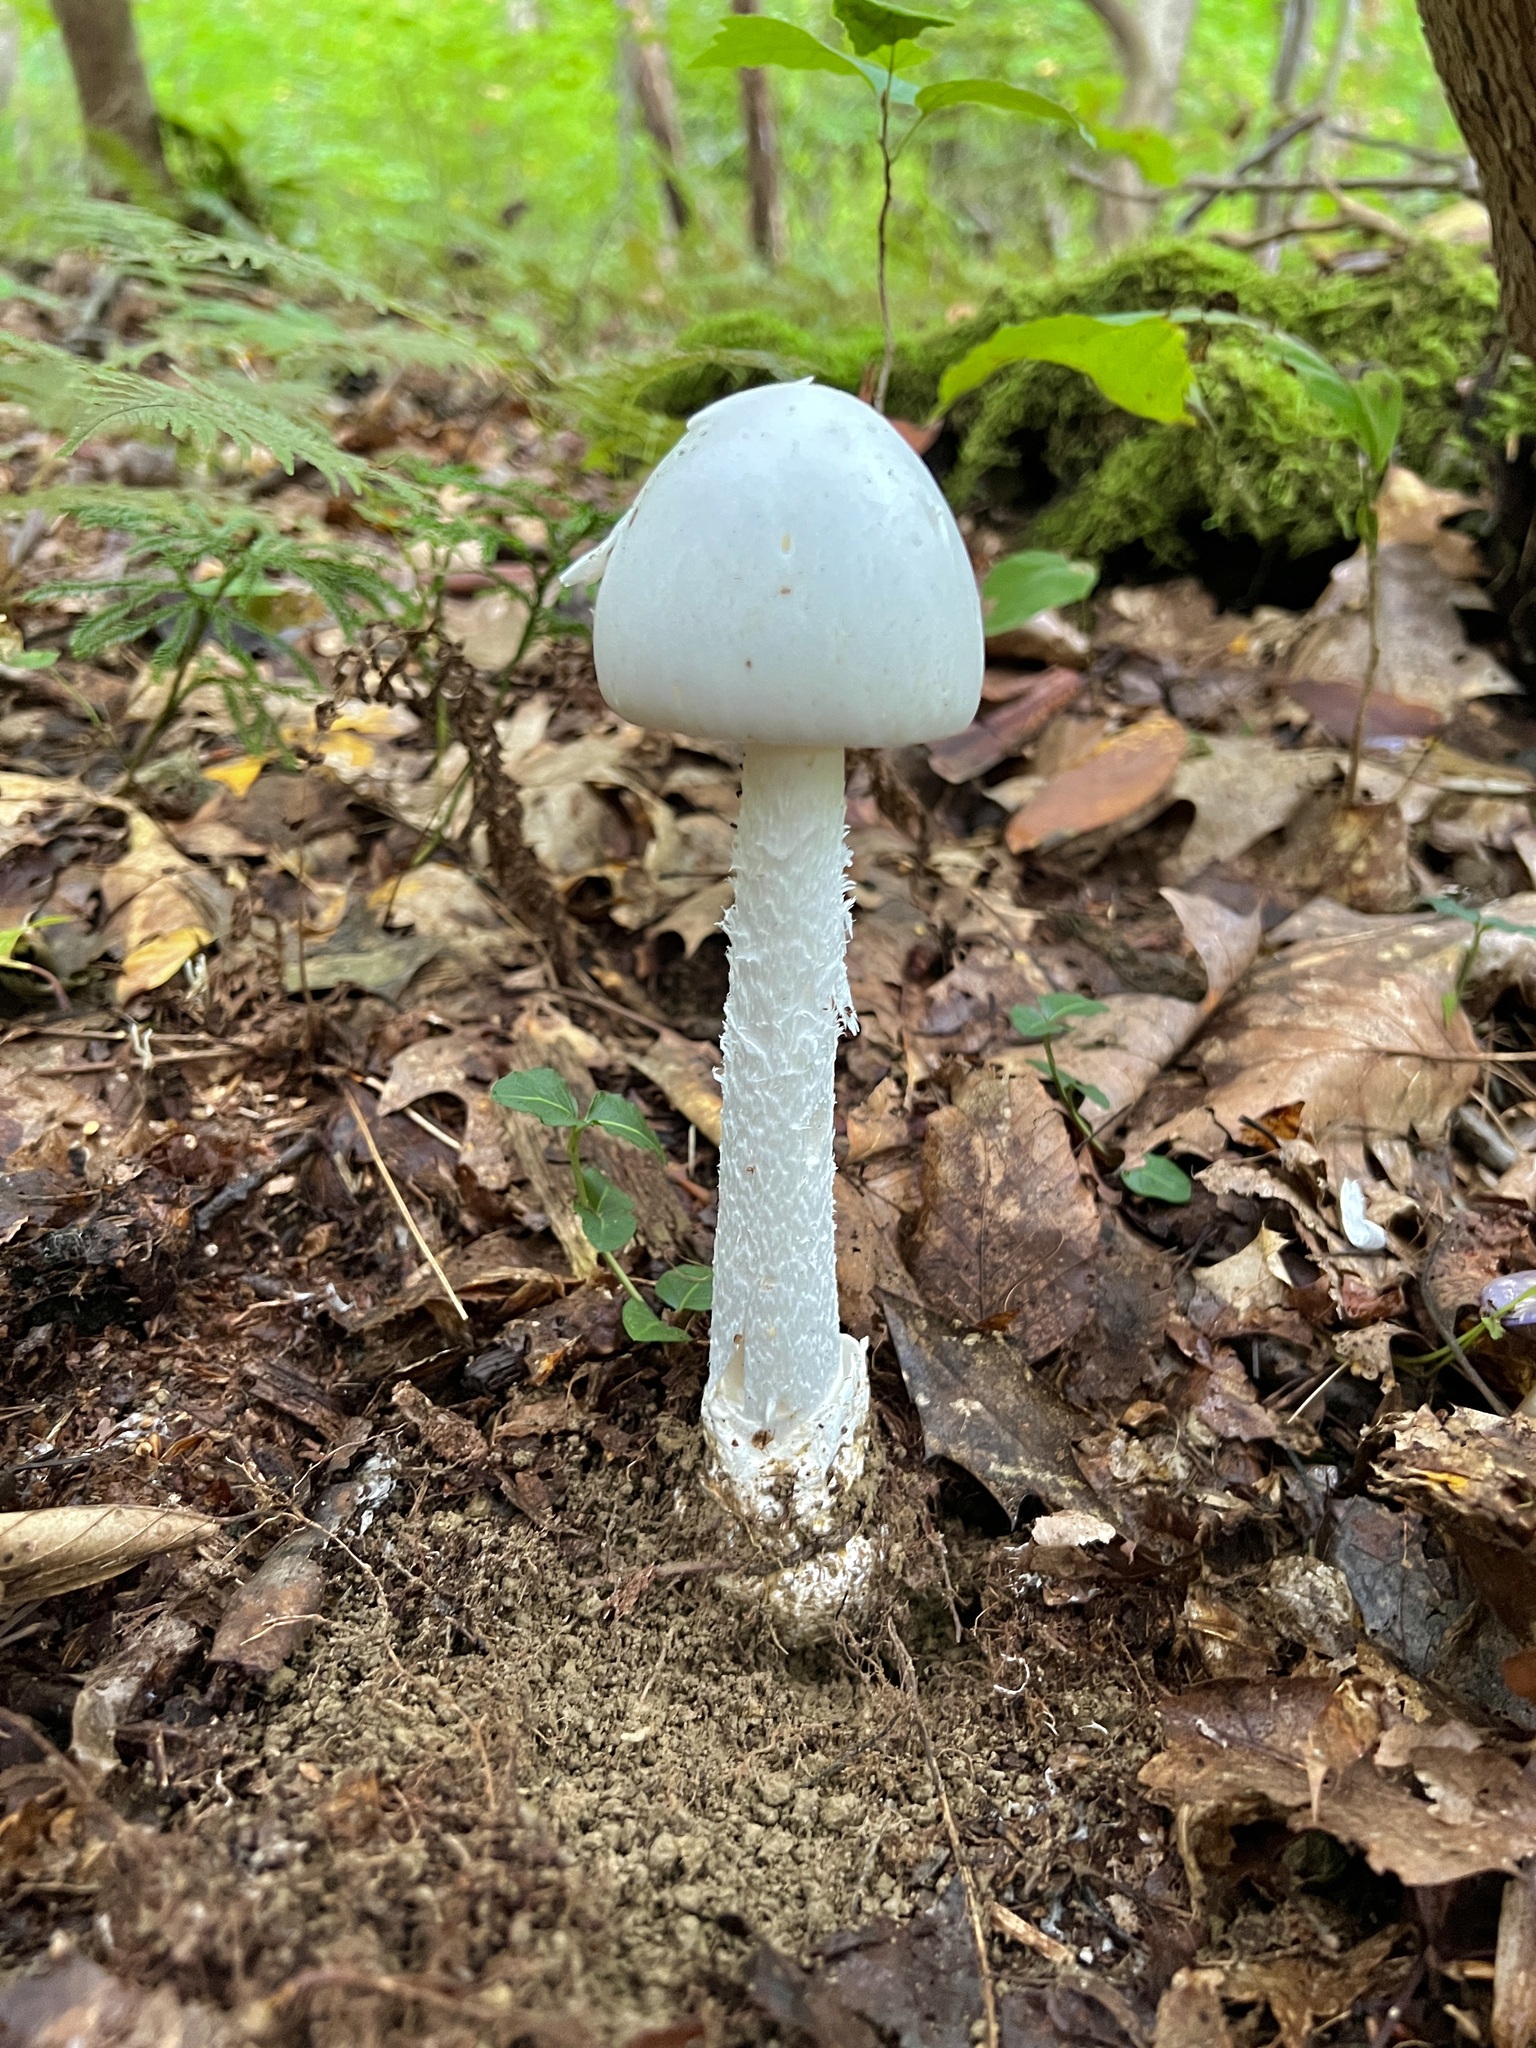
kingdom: Fungi
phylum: Basidiomycota
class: Agaricomycetes
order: Agaricales
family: Amanitaceae
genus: Amanita
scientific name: Amanita bisporigera
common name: Eastern north american destroying angel
